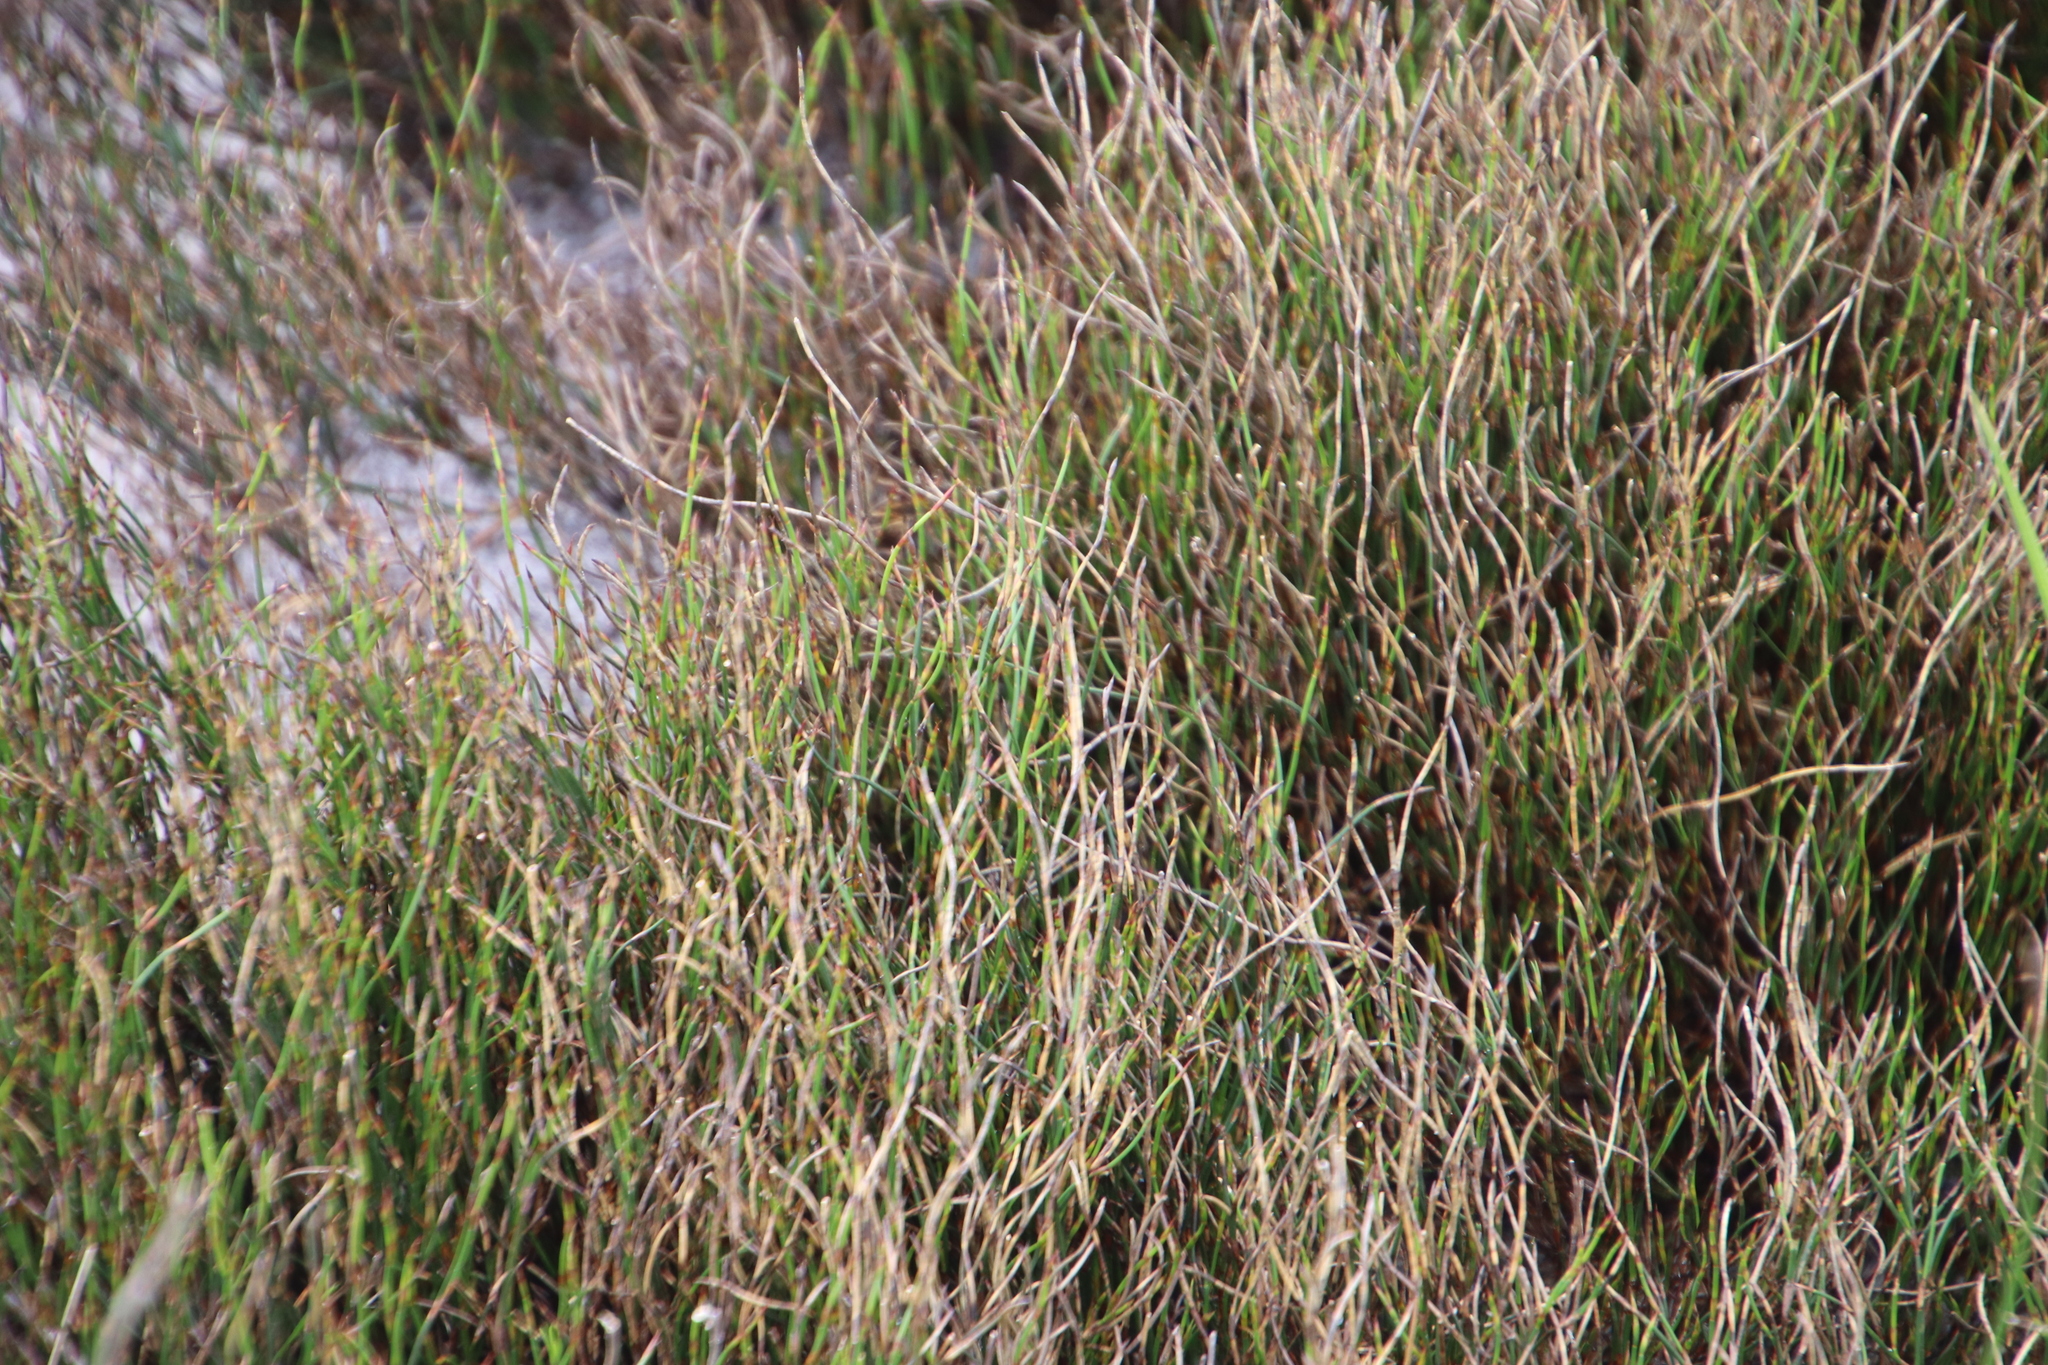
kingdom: Plantae
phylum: Tracheophyta
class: Liliopsida
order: Poales
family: Restionaceae
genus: Restio
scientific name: Restio curviramis
